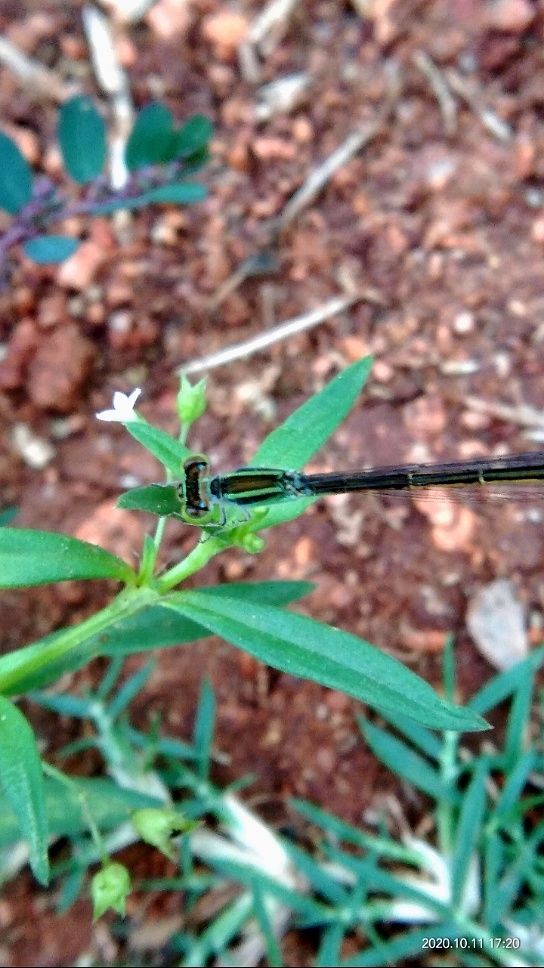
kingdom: Animalia
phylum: Arthropoda
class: Insecta
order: Odonata
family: Coenagrionidae
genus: Ischnura
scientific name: Ischnura rubilio
